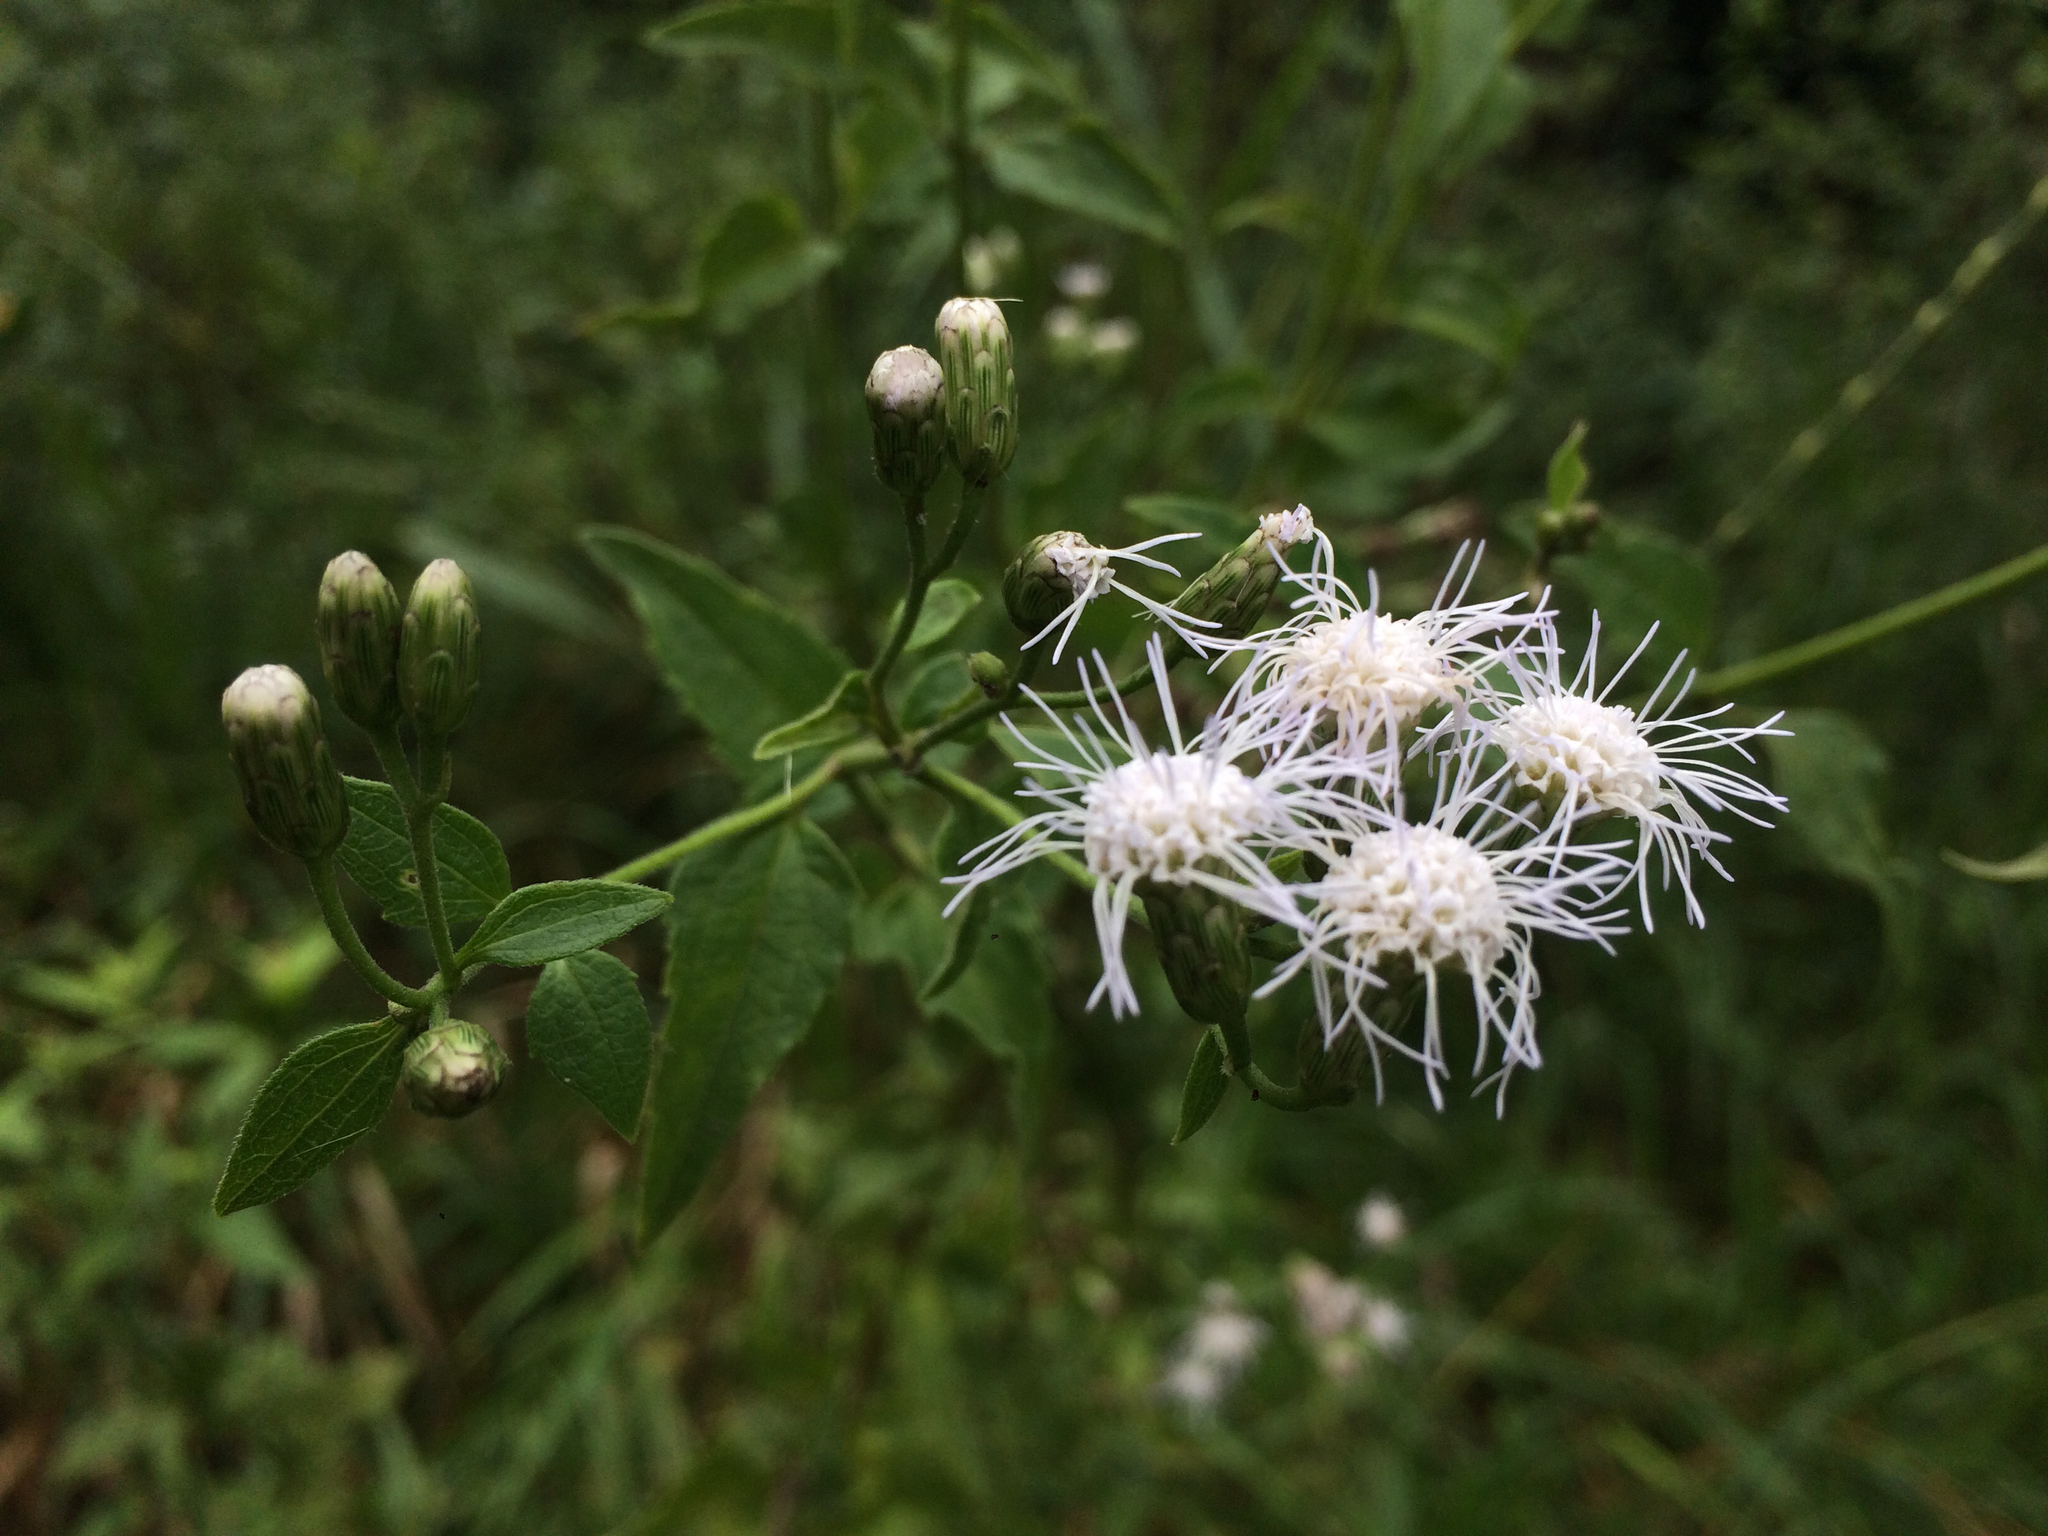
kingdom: Plantae
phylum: Tracheophyta
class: Magnoliopsida
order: Asterales
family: Asteraceae
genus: Chromolaena
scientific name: Chromolaena odorata
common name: Siamweed
